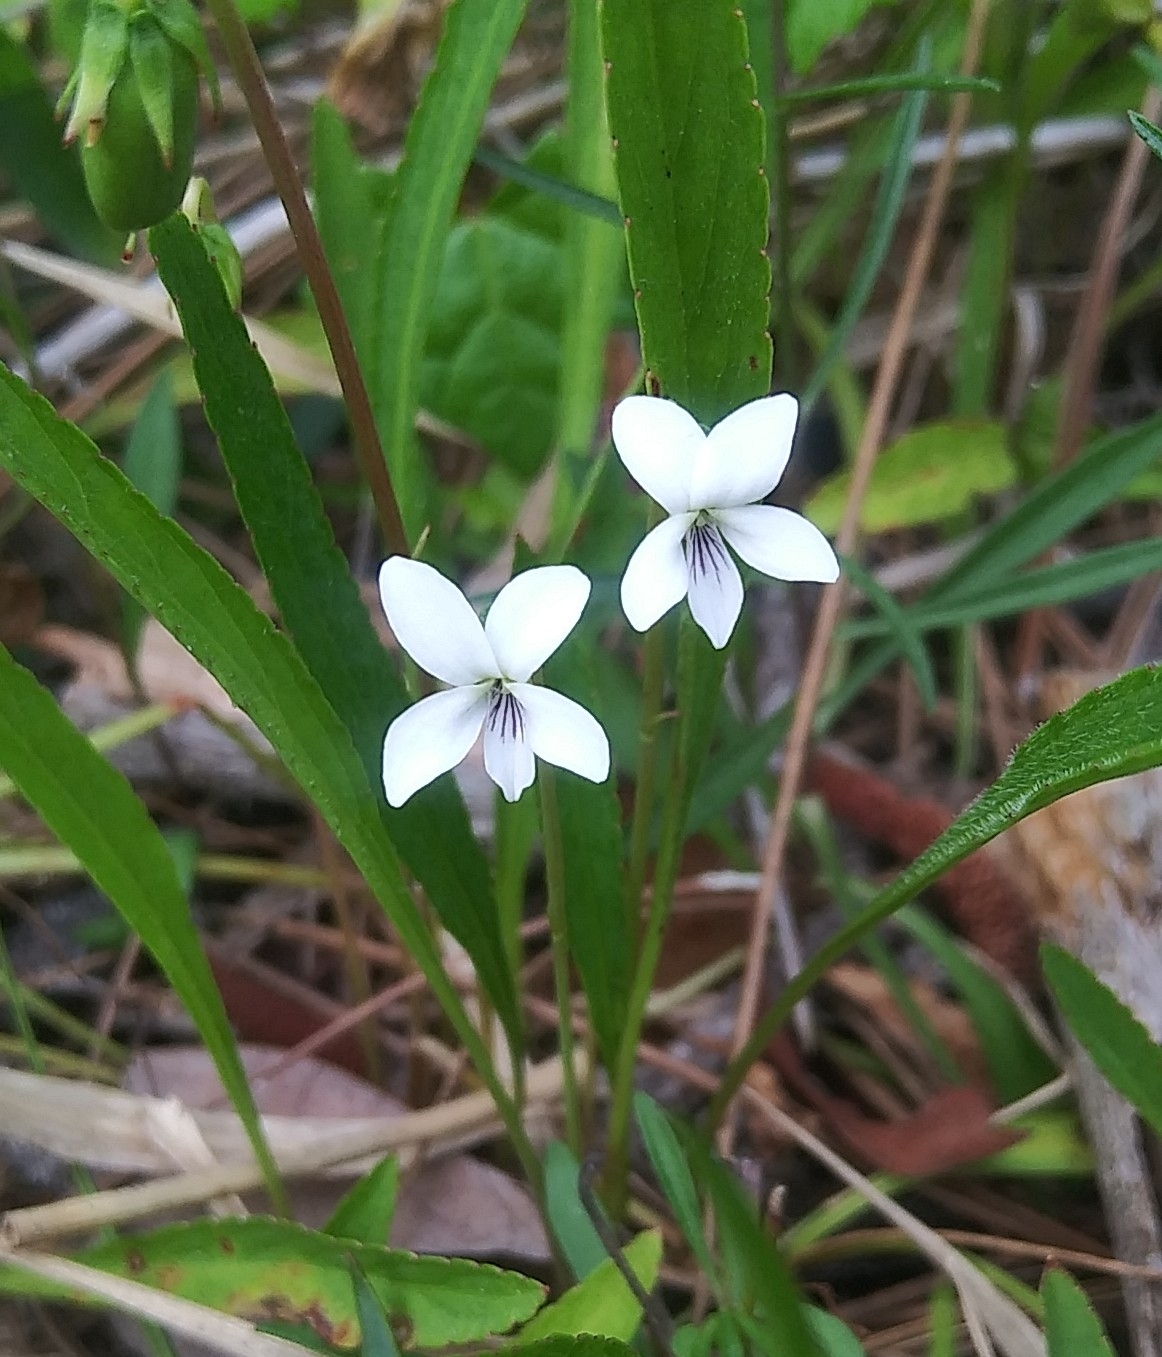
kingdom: Plantae
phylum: Tracheophyta
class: Magnoliopsida
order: Malpighiales
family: Violaceae
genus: Viola
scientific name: Viola lanceolata
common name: Bog white violet
